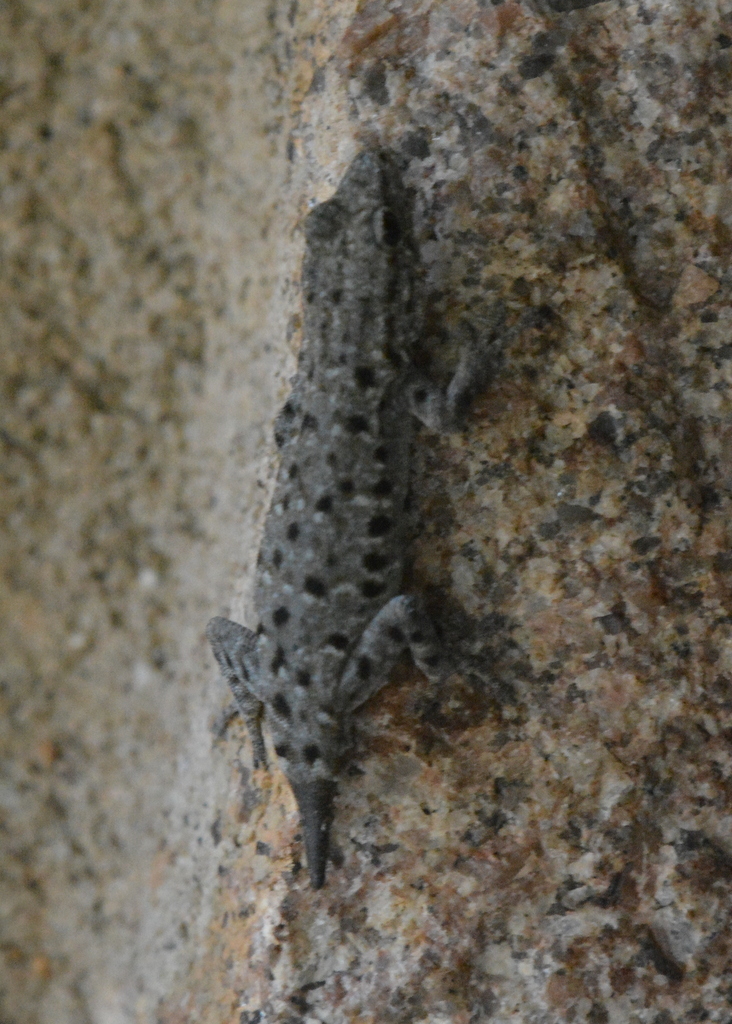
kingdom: Animalia
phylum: Chordata
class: Squamata
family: Gekkonidae
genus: Lygodactylus
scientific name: Lygodactylus stevensoni
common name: Stevenson's dwarf gecko
